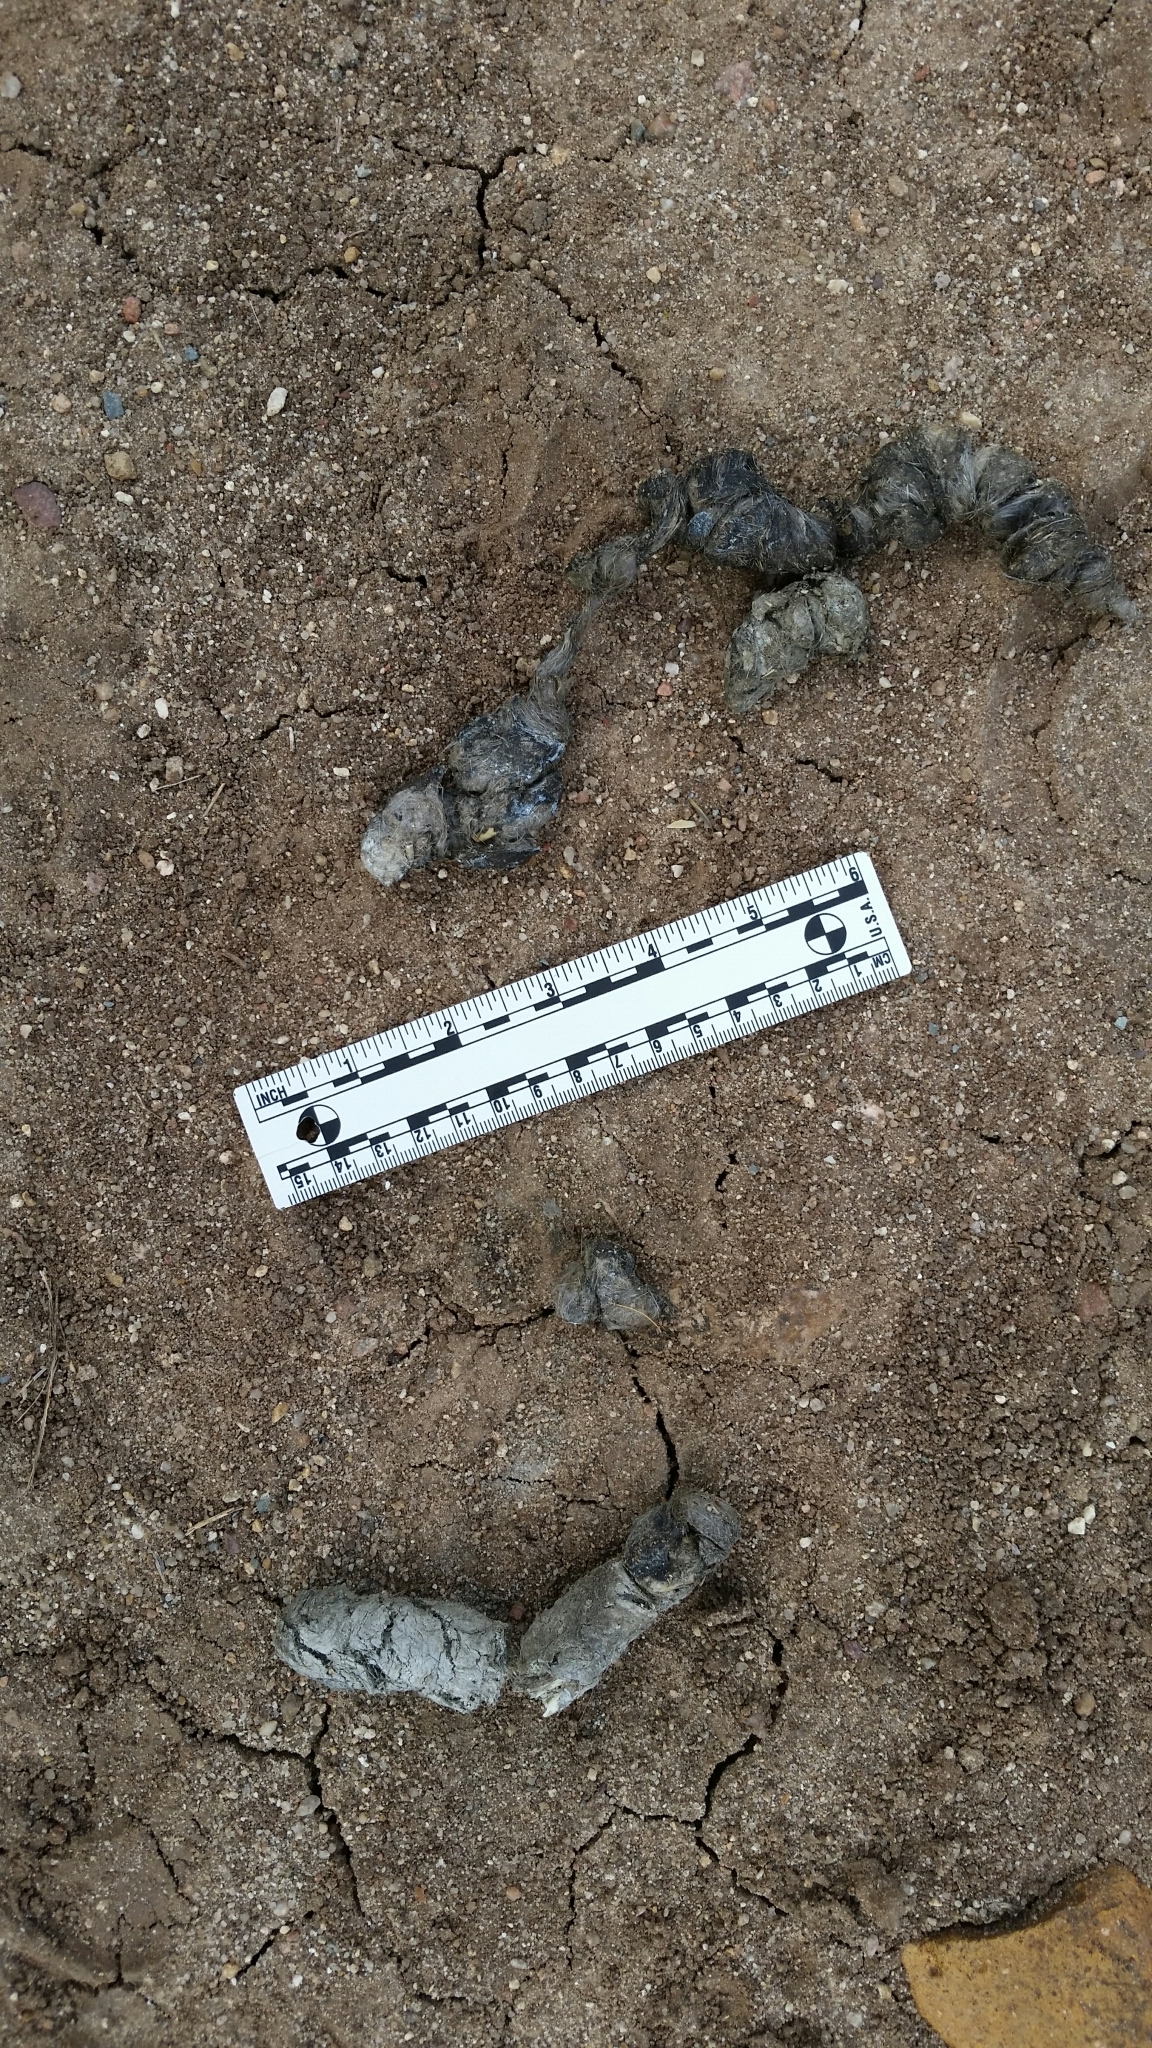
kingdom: Animalia
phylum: Chordata
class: Mammalia
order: Carnivora
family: Canidae
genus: Canis
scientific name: Canis latrans
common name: Coyote
